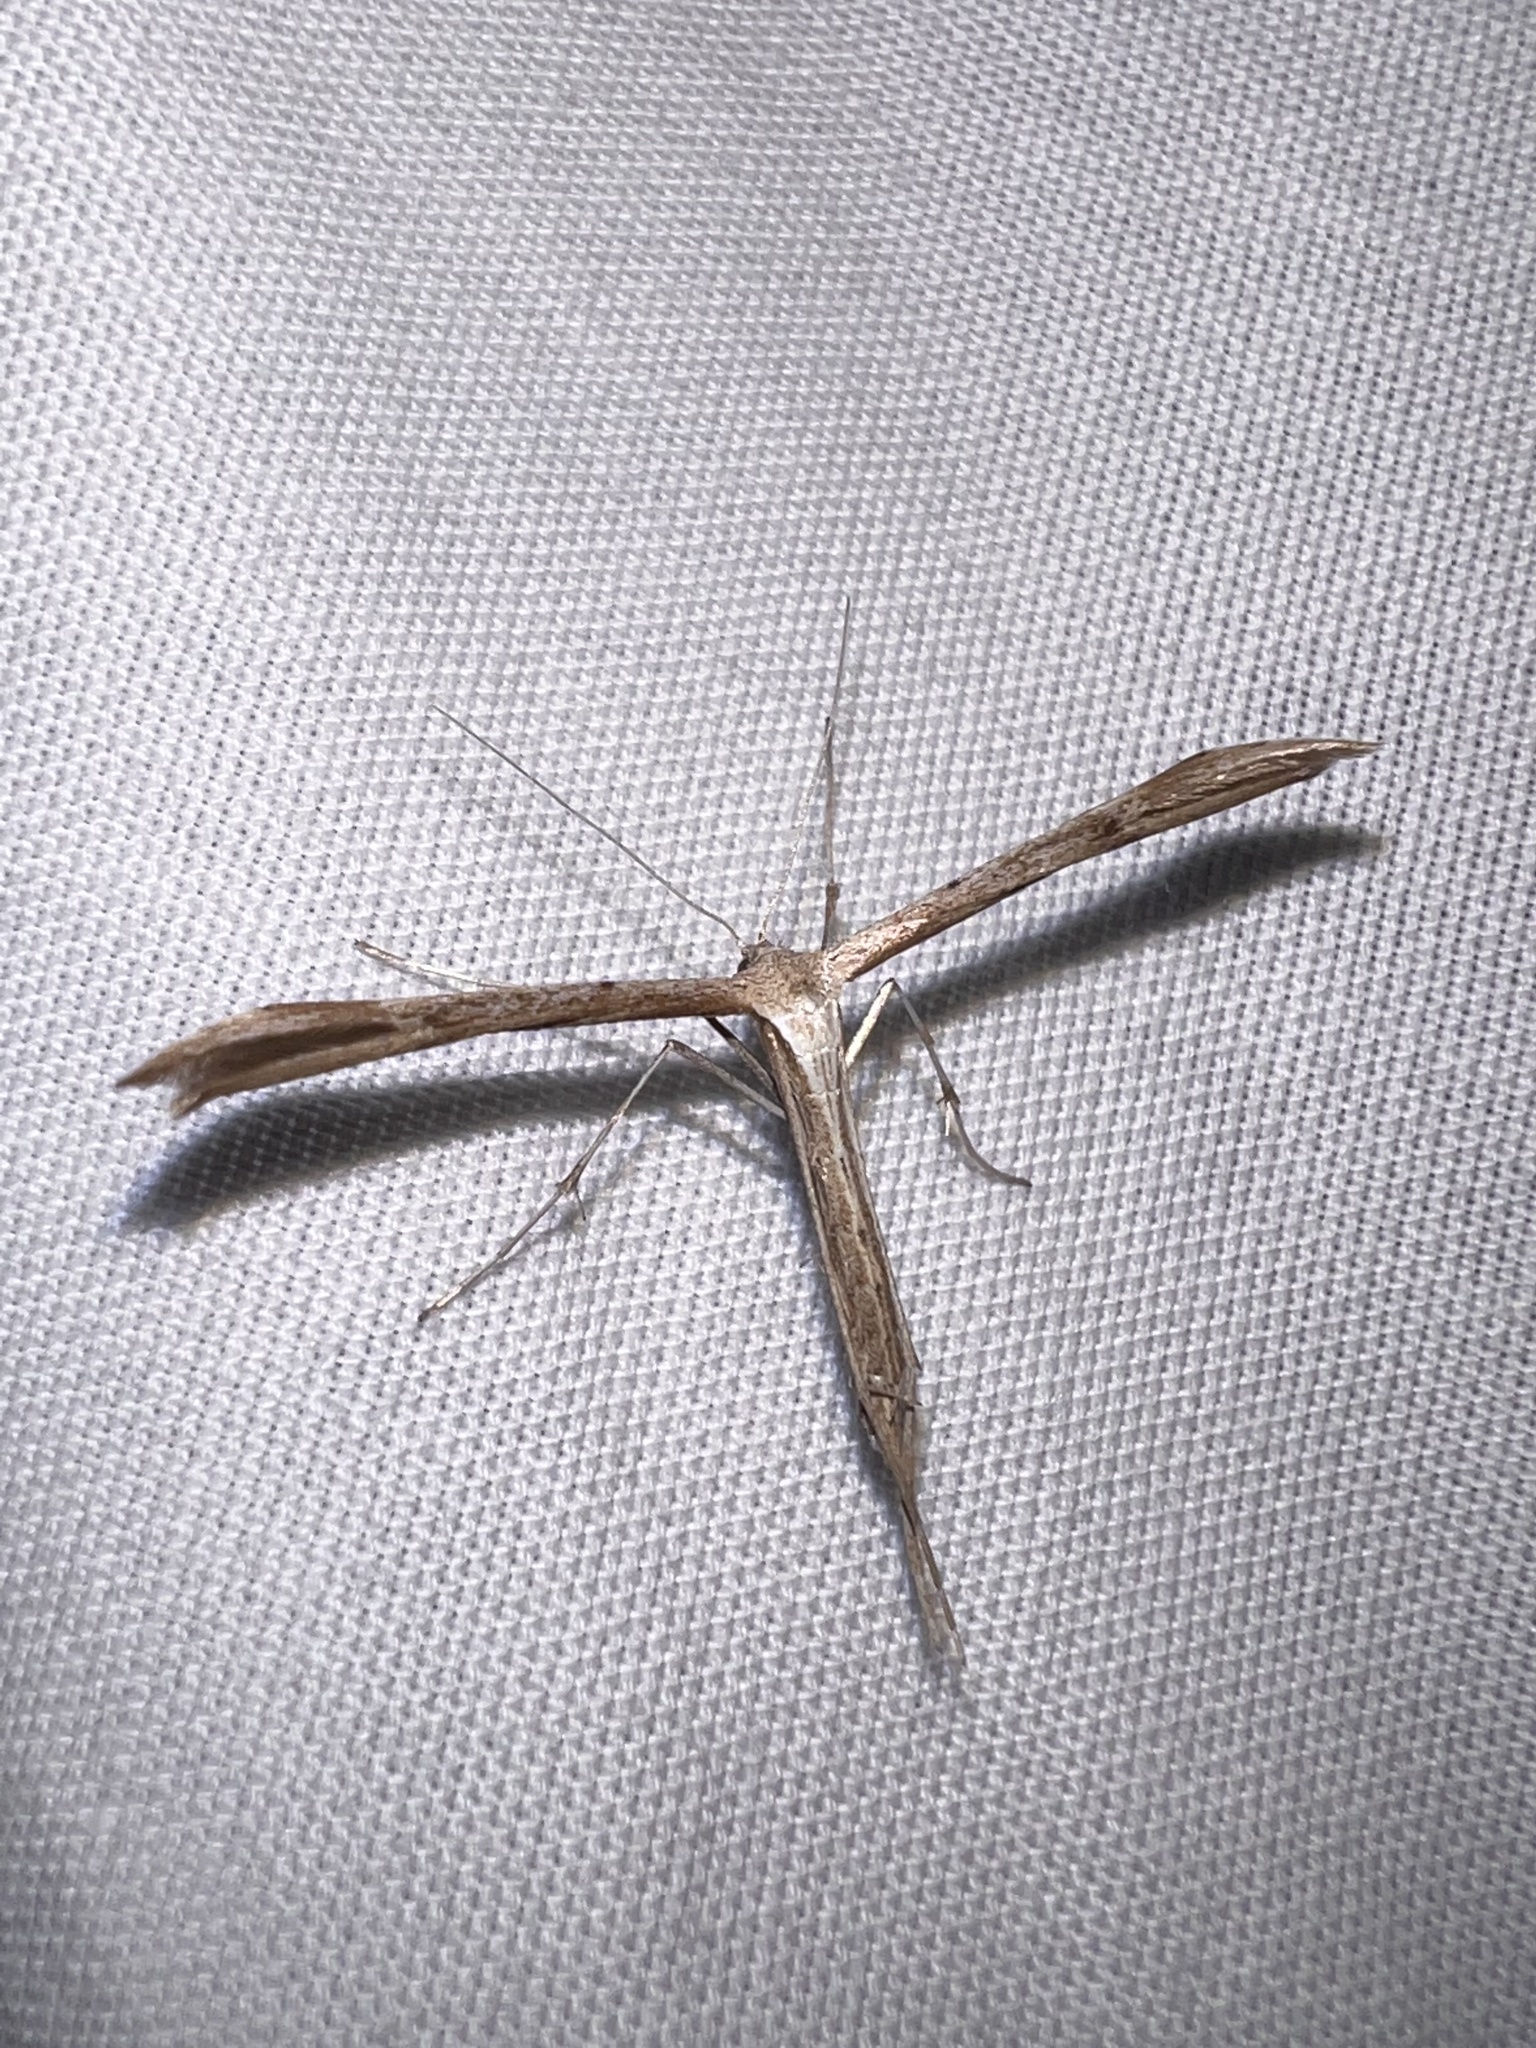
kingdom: Animalia
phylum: Arthropoda
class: Insecta
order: Lepidoptera
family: Pterophoridae
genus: Emmelina
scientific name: Emmelina monodactyla
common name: Common plume
